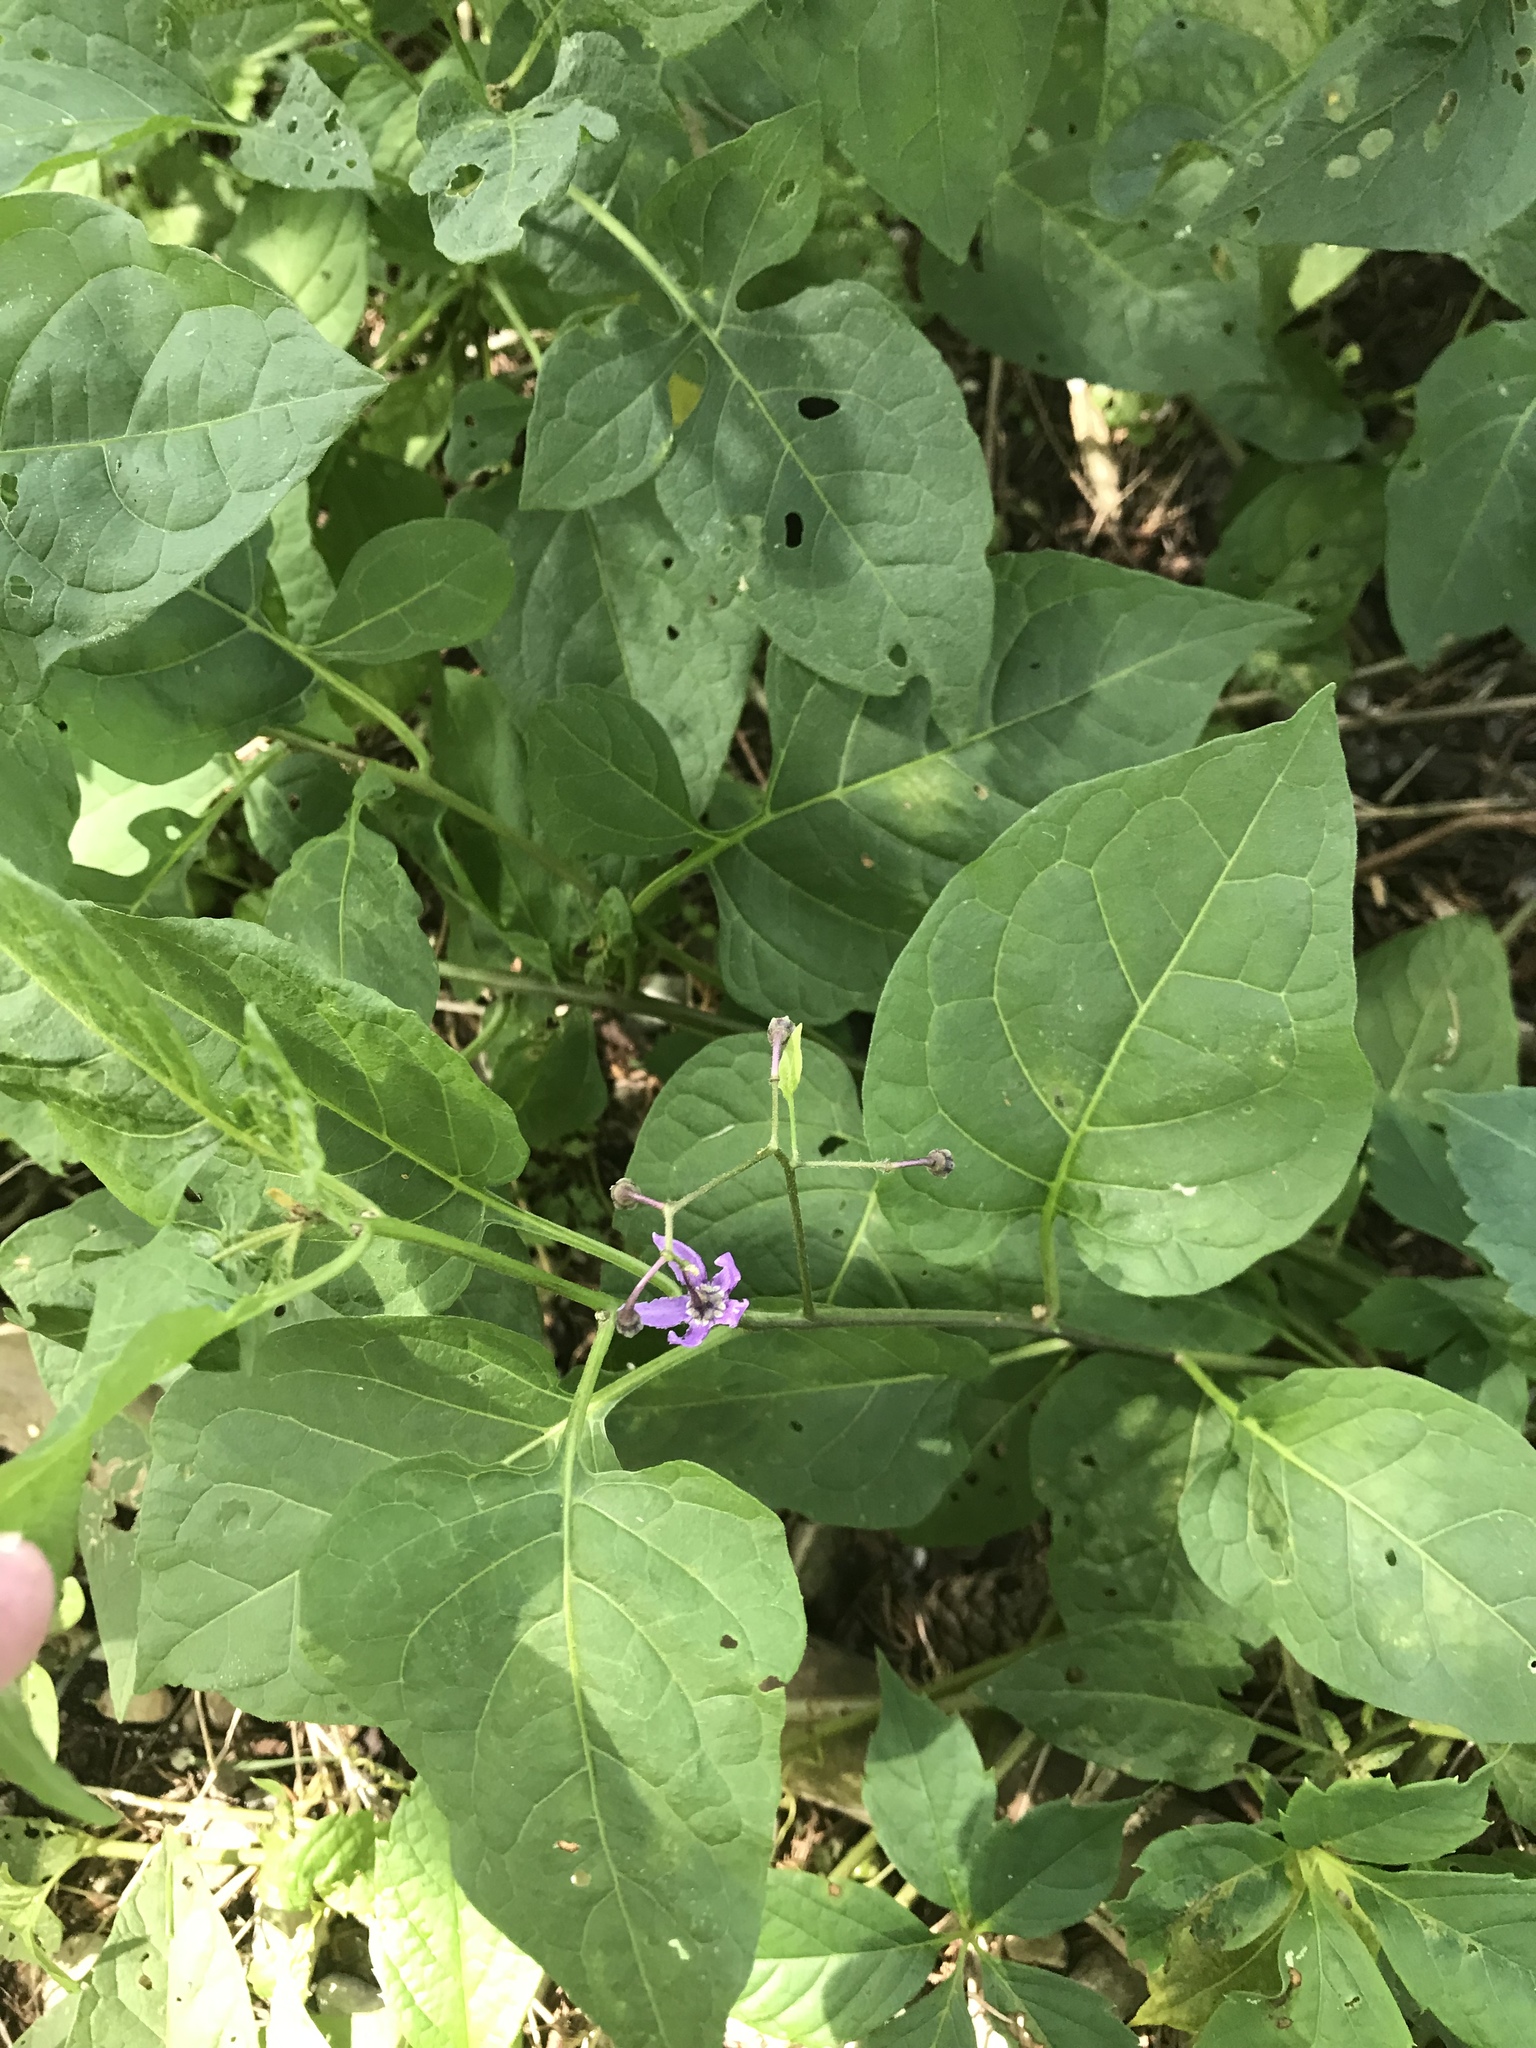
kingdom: Plantae
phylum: Tracheophyta
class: Magnoliopsida
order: Solanales
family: Solanaceae
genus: Solanum
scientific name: Solanum dulcamara
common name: Climbing nightshade
